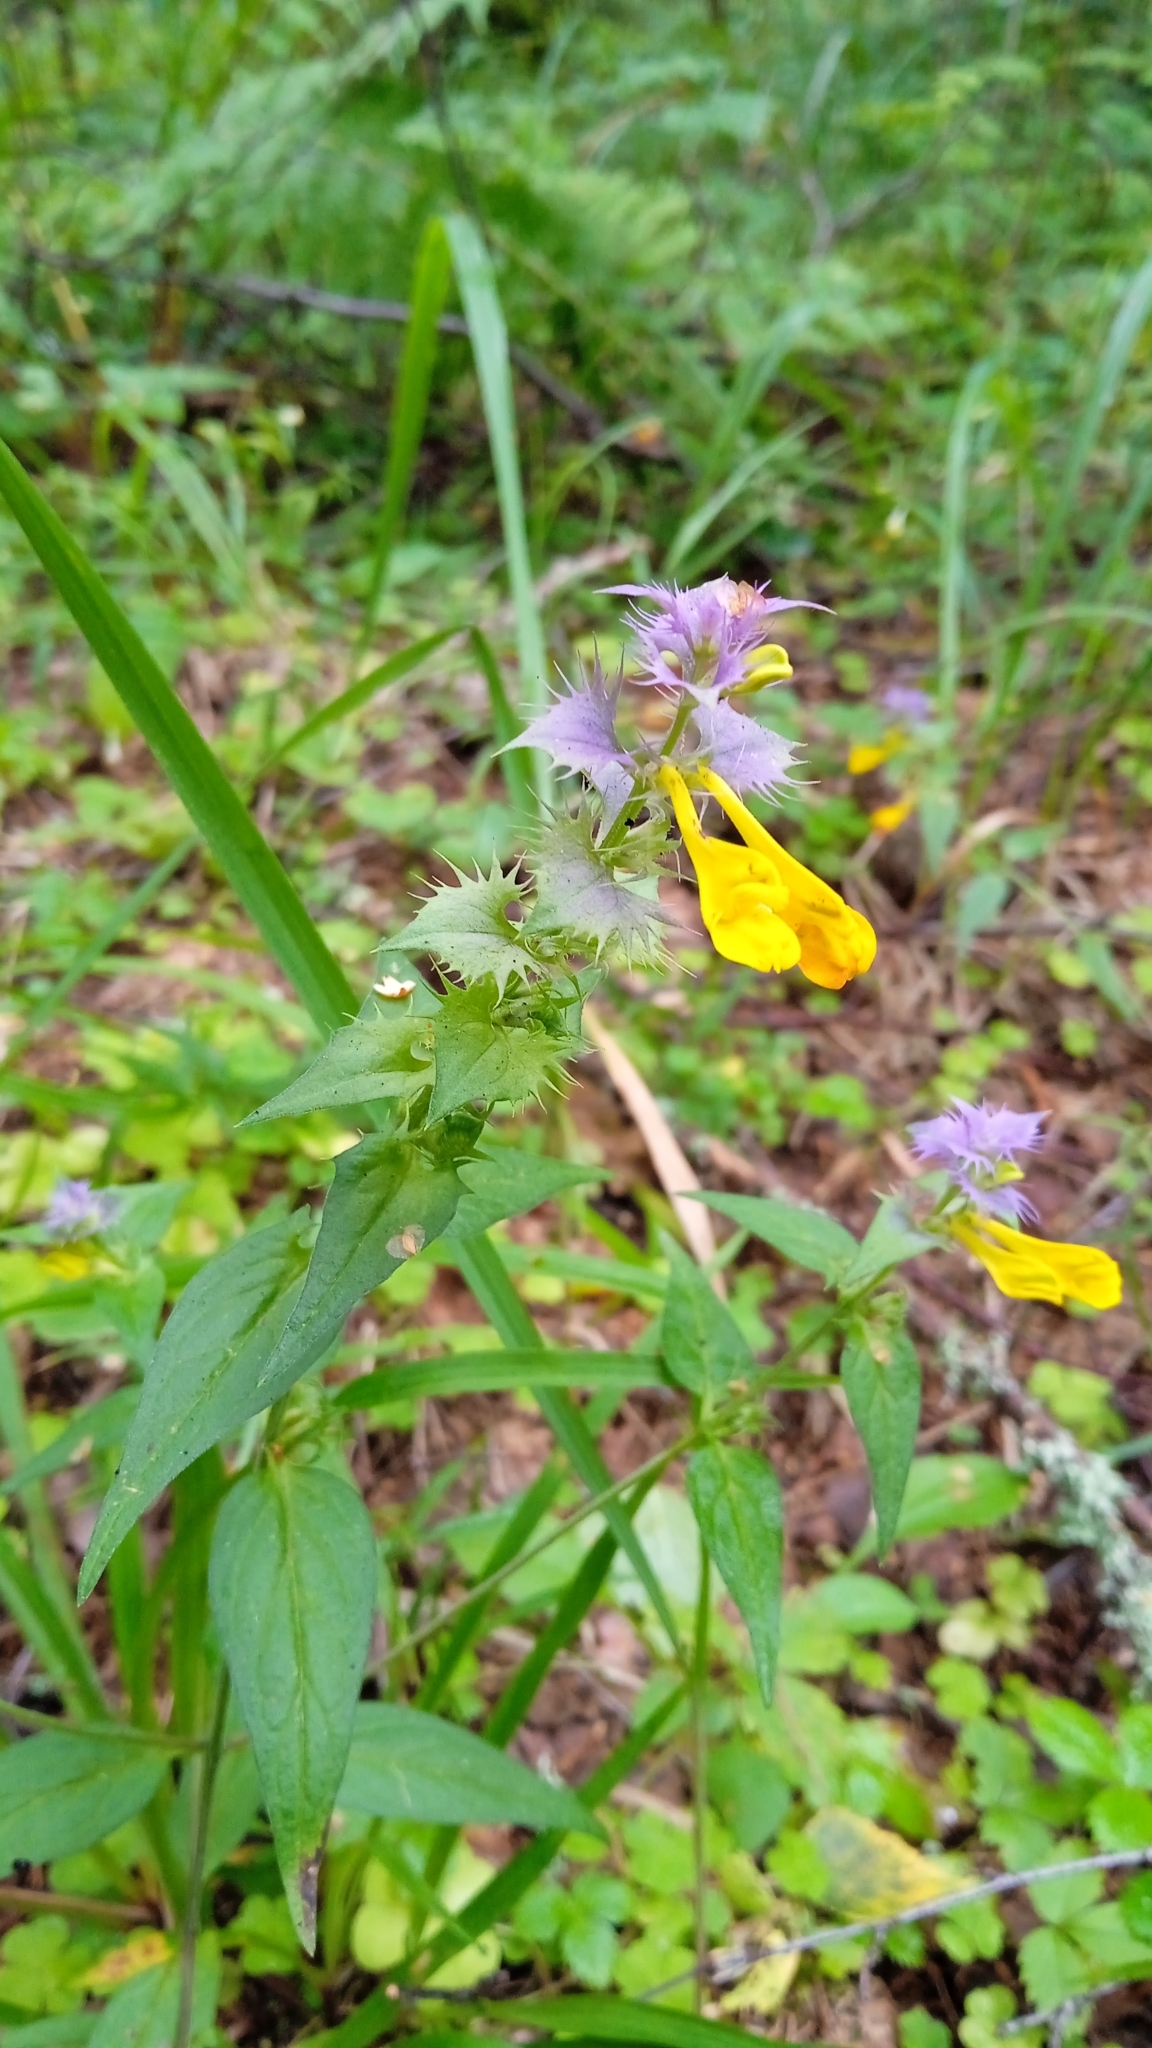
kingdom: Plantae
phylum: Tracheophyta
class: Magnoliopsida
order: Lamiales
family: Orobanchaceae
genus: Melampyrum
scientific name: Melampyrum nemorosum
